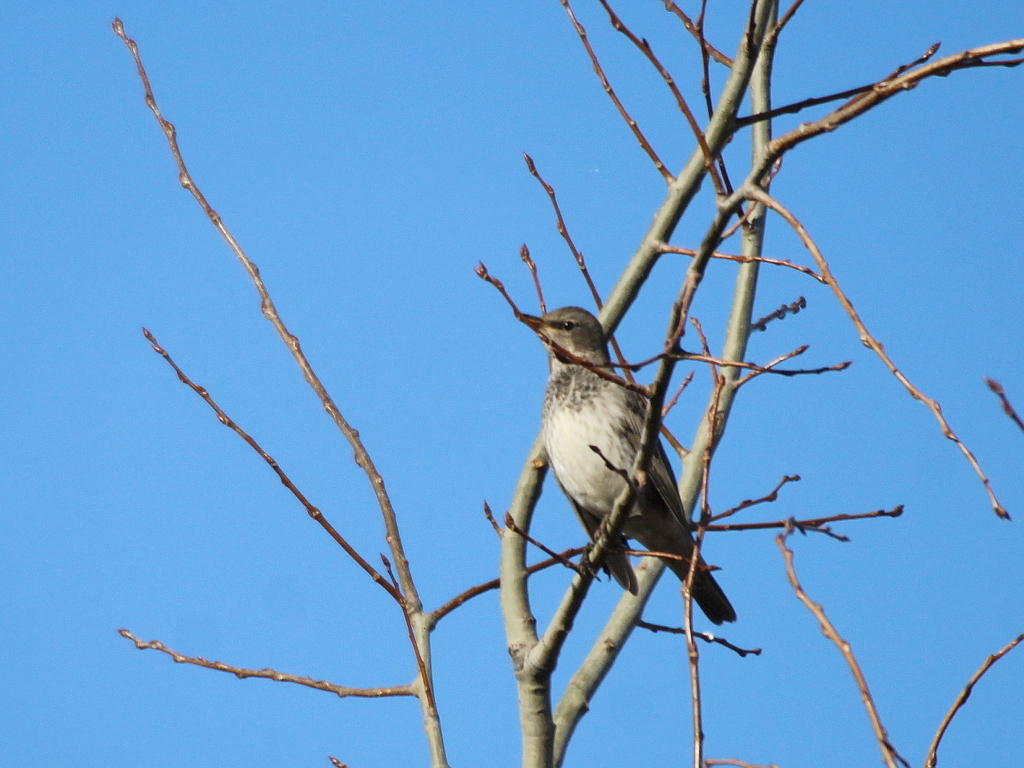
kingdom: Animalia
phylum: Chordata
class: Aves
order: Passeriformes
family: Turdidae
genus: Turdus
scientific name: Turdus atrogularis
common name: Black-throated thrush
